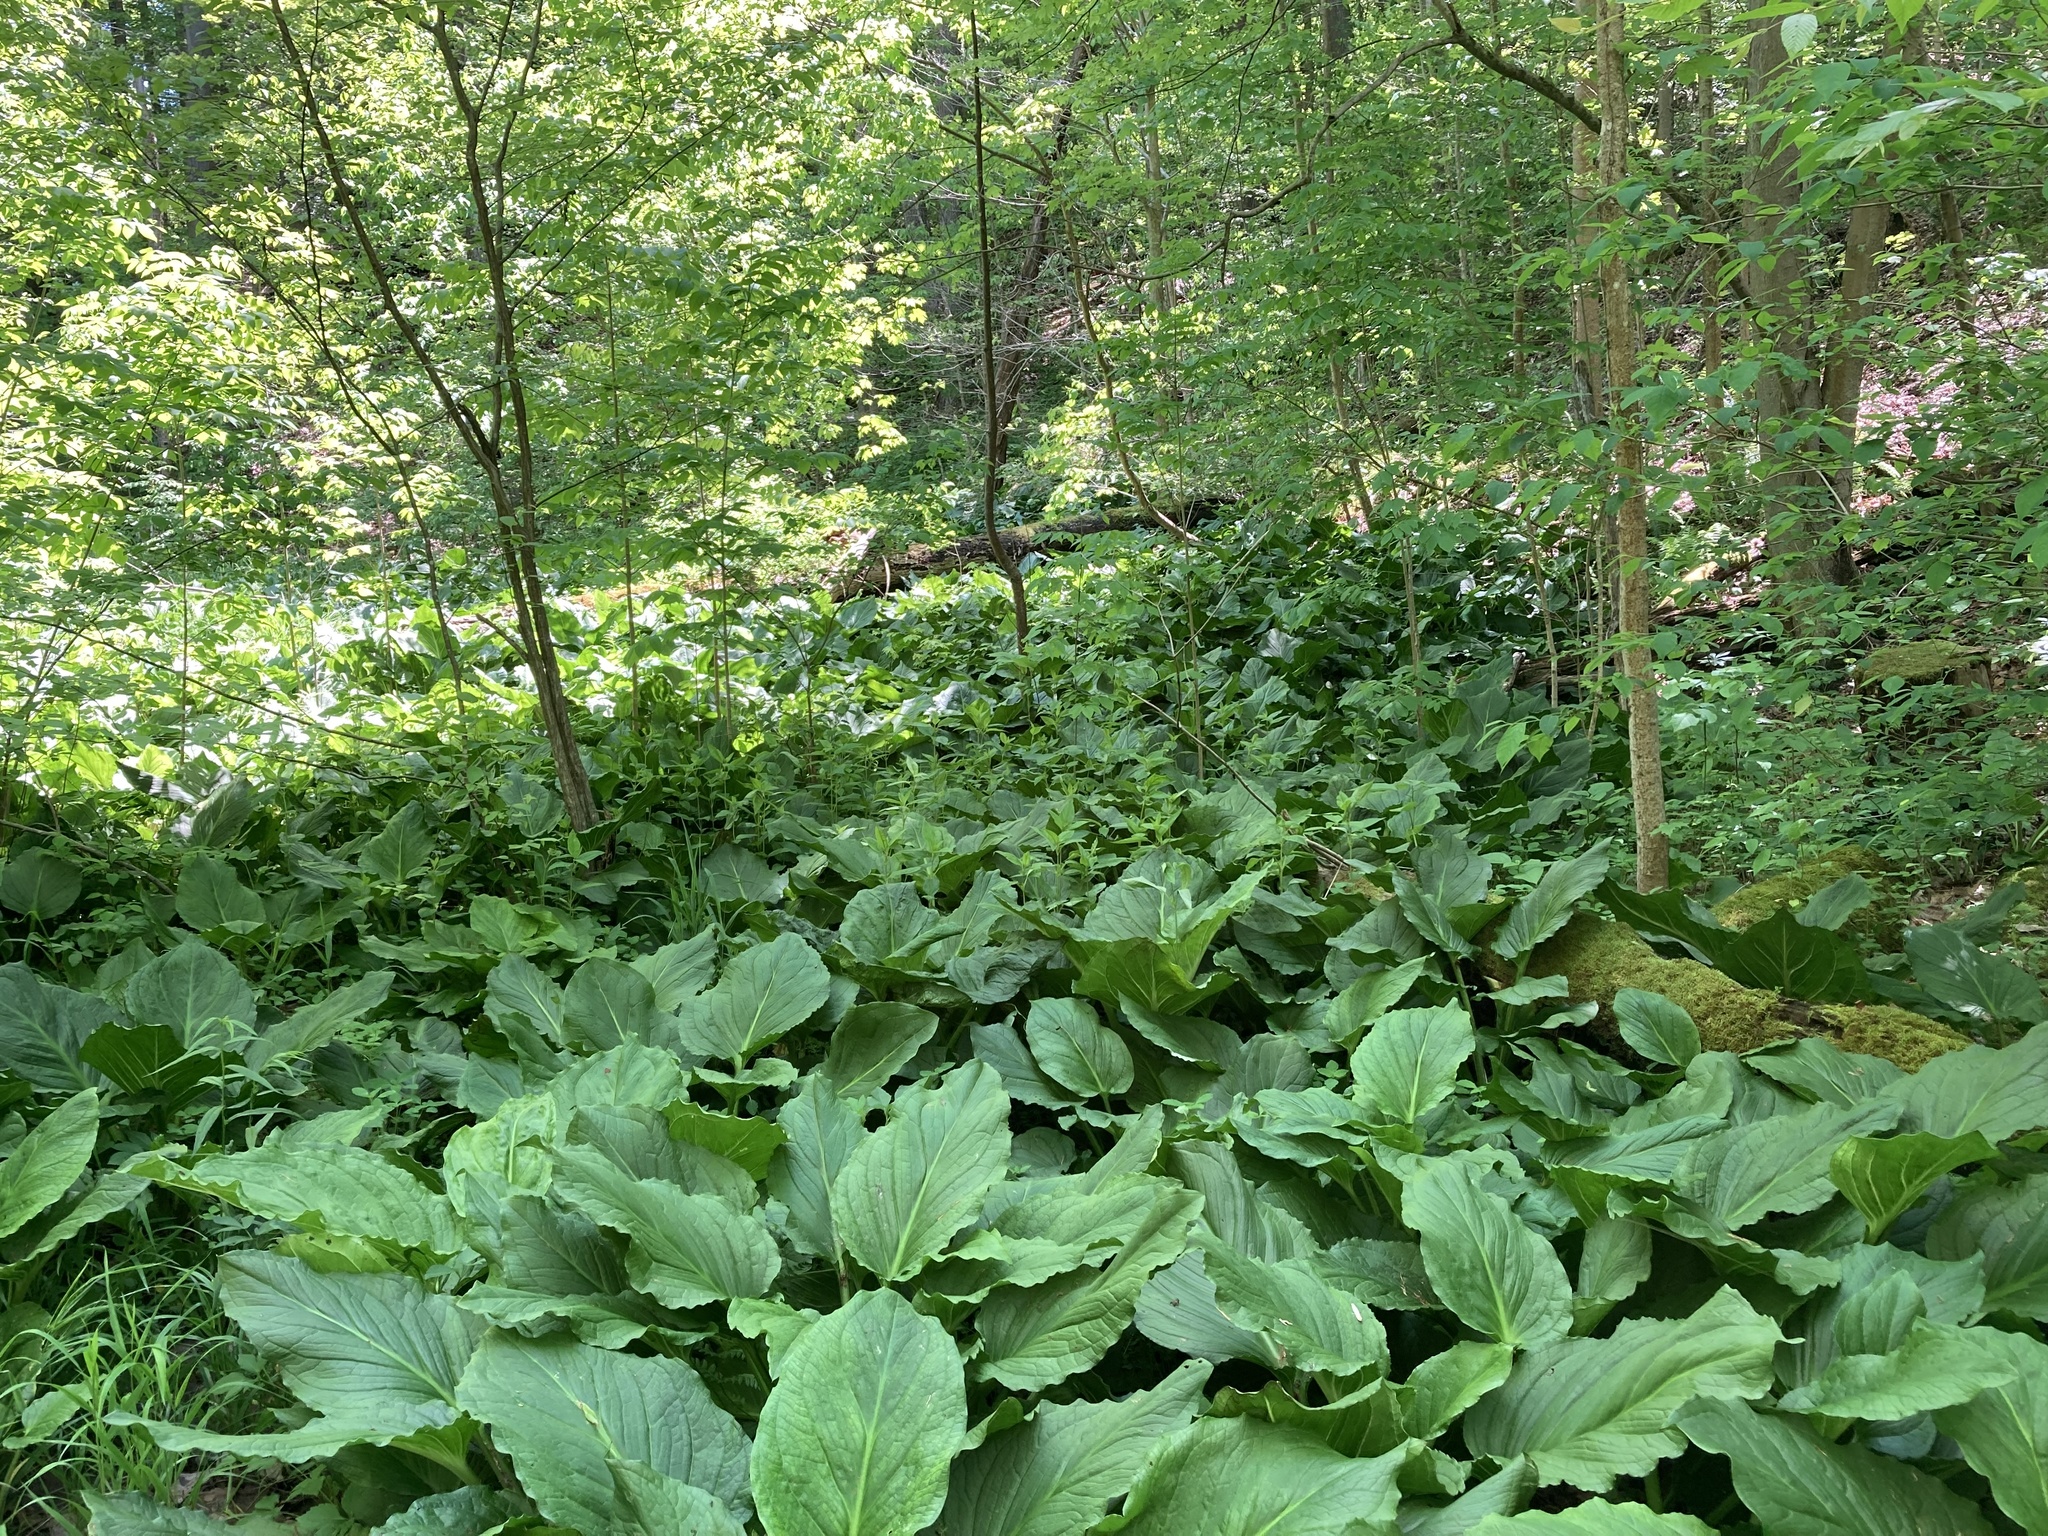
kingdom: Plantae
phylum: Tracheophyta
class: Liliopsida
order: Alismatales
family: Araceae
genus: Symplocarpus
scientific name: Symplocarpus foetidus
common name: Eastern skunk cabbage
